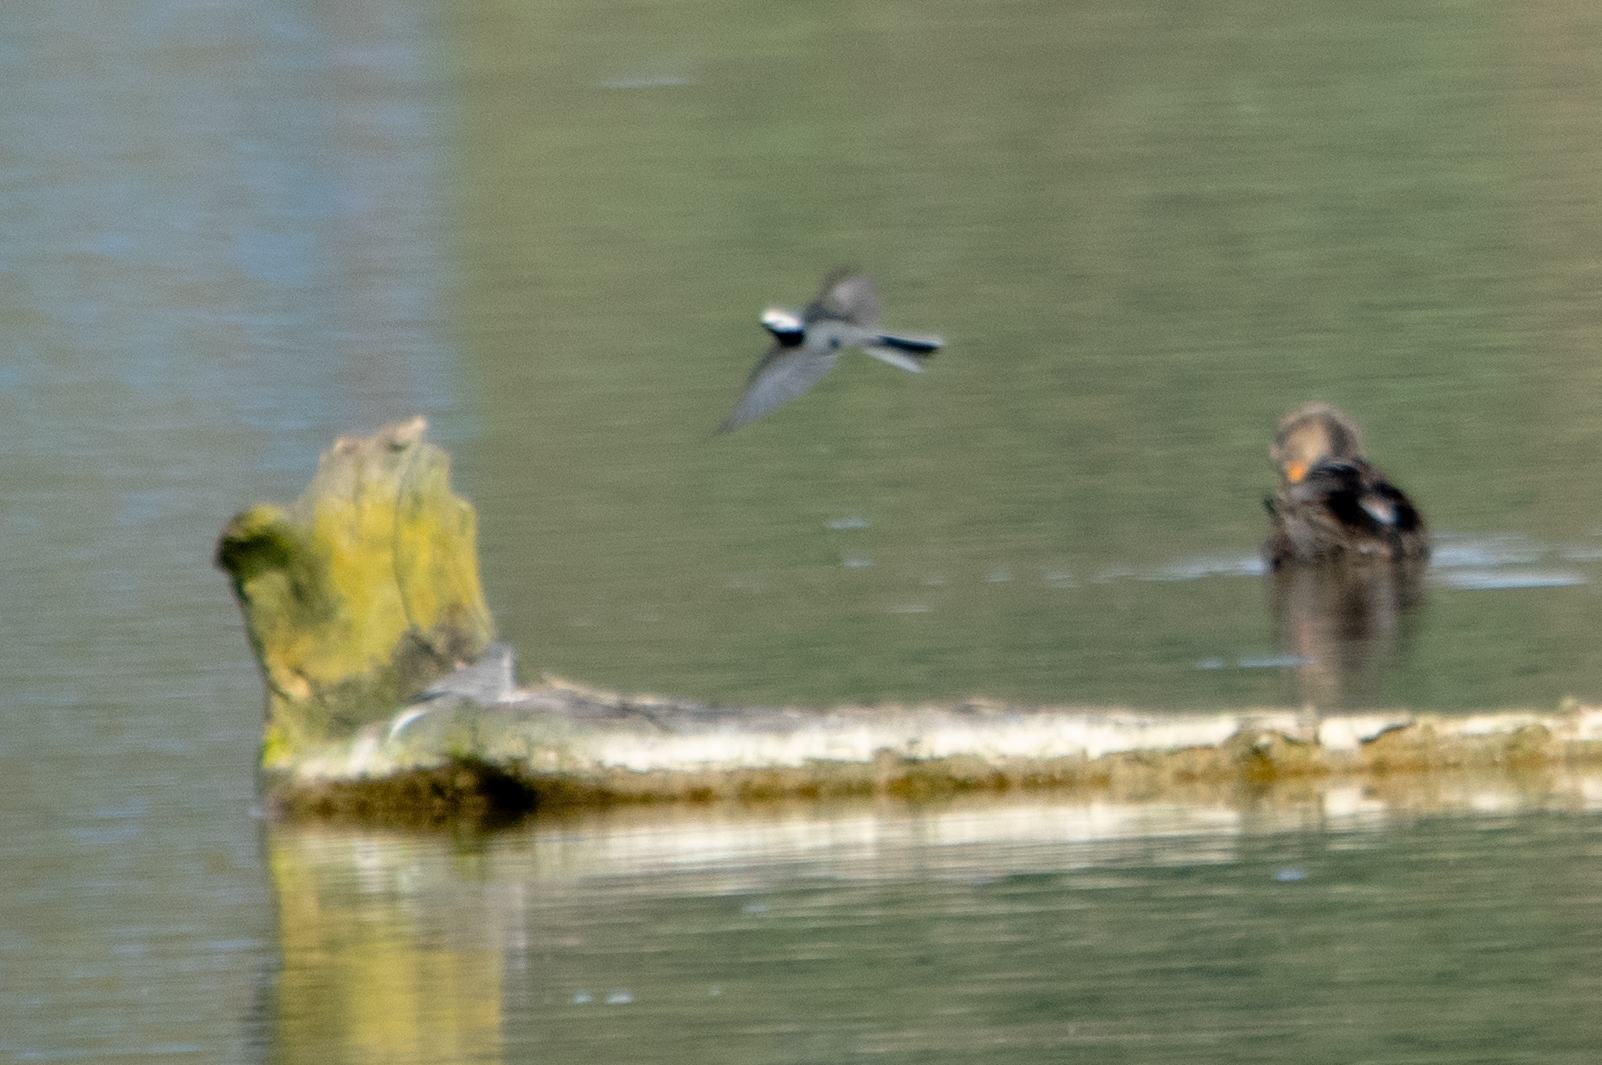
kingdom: Animalia
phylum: Chordata
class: Aves
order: Passeriformes
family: Motacillidae
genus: Motacilla
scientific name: Motacilla alba
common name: White wagtail
